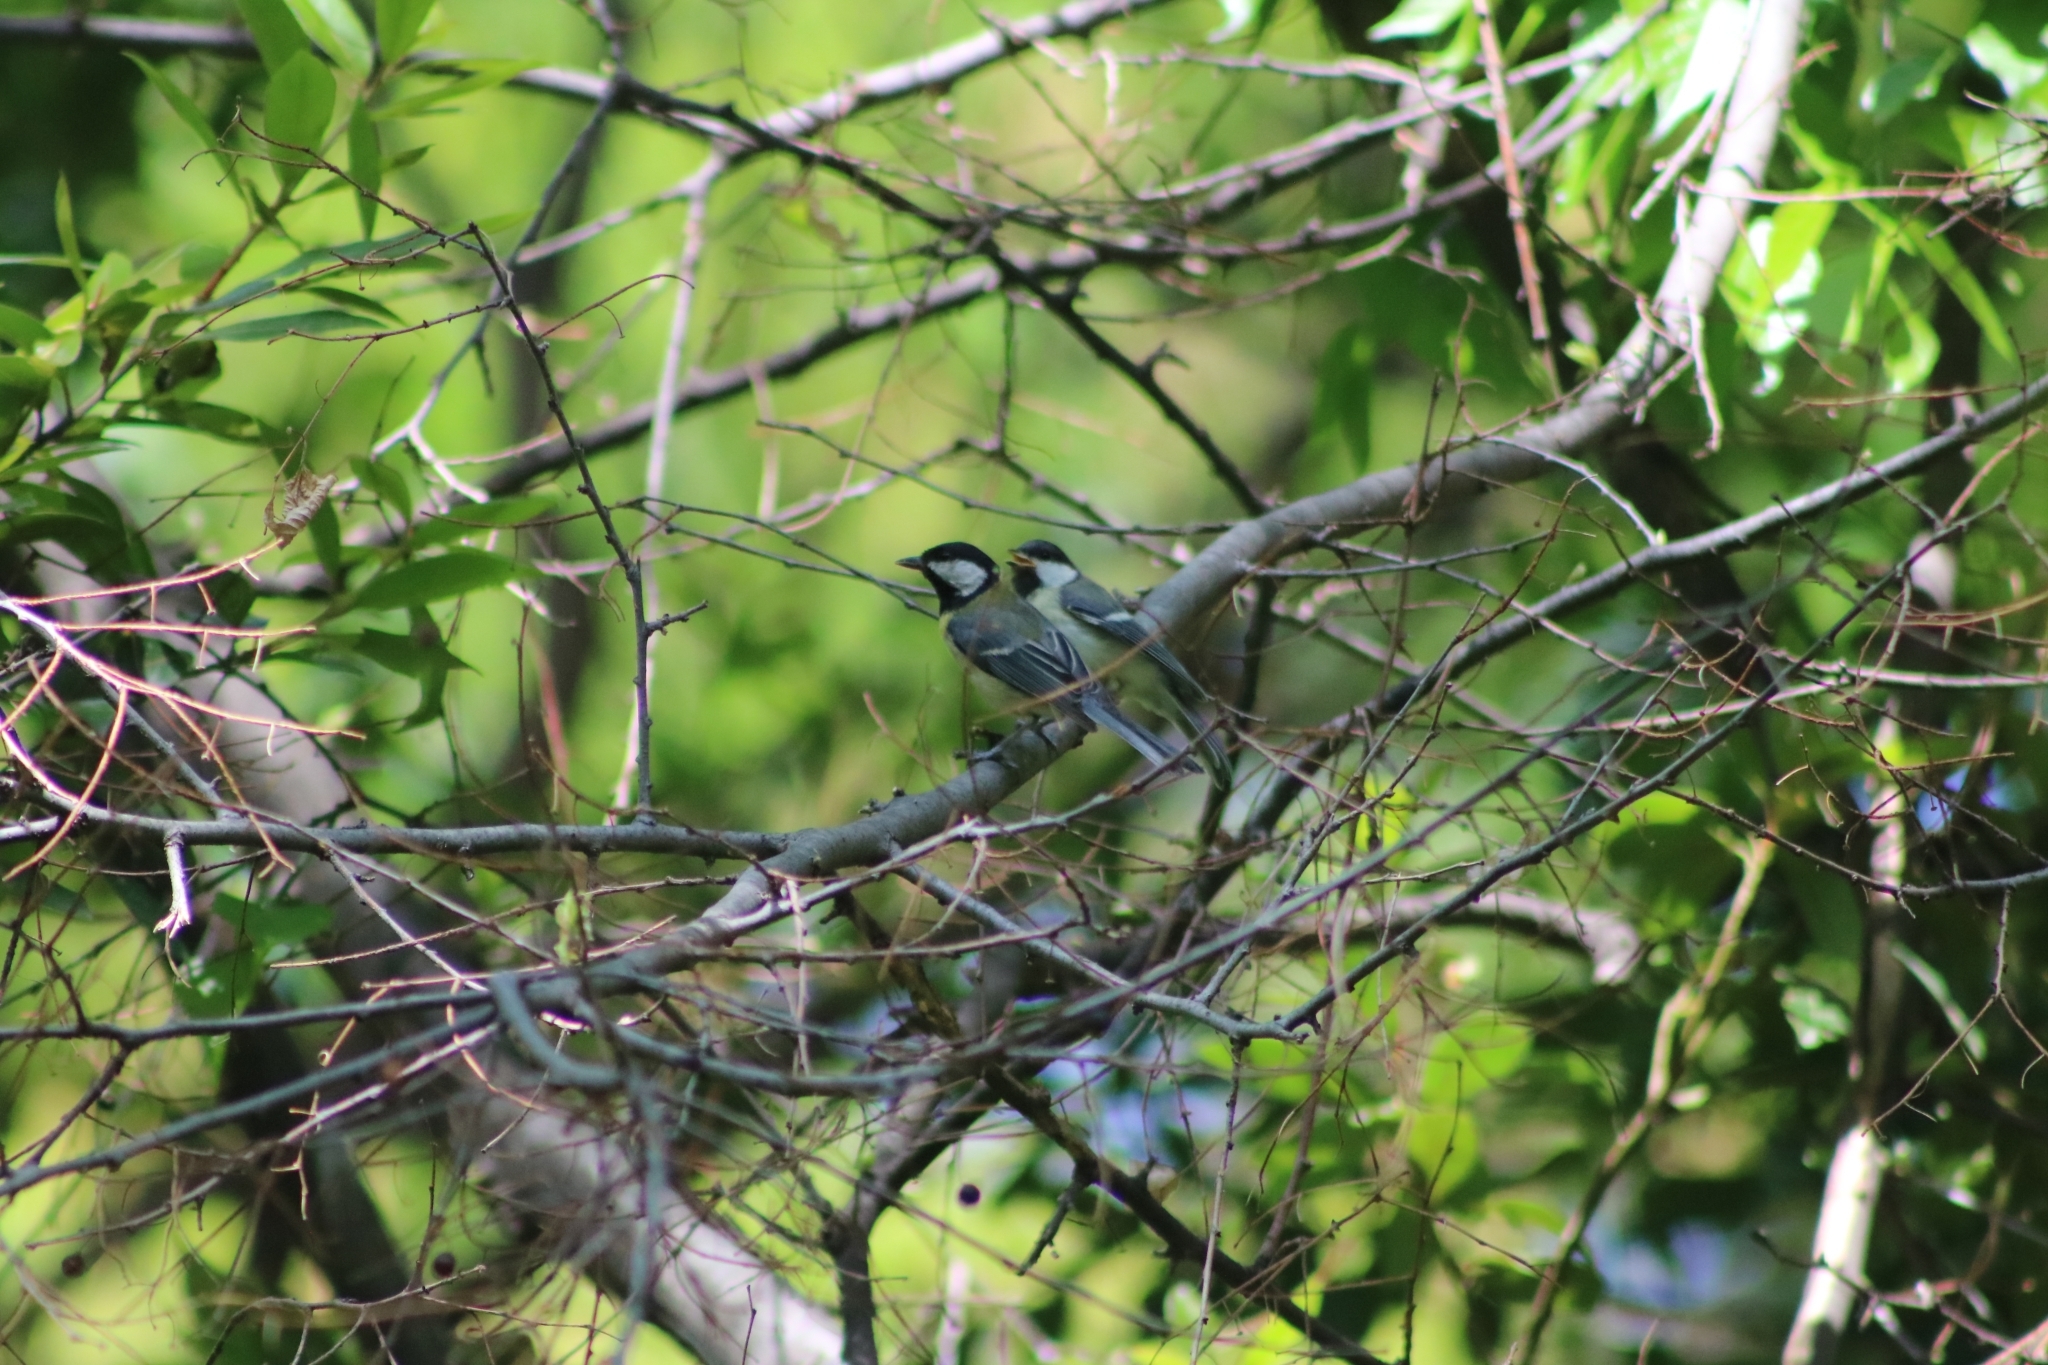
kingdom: Animalia
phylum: Chordata
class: Aves
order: Passeriformes
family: Paridae
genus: Parus
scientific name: Parus major
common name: Great tit
